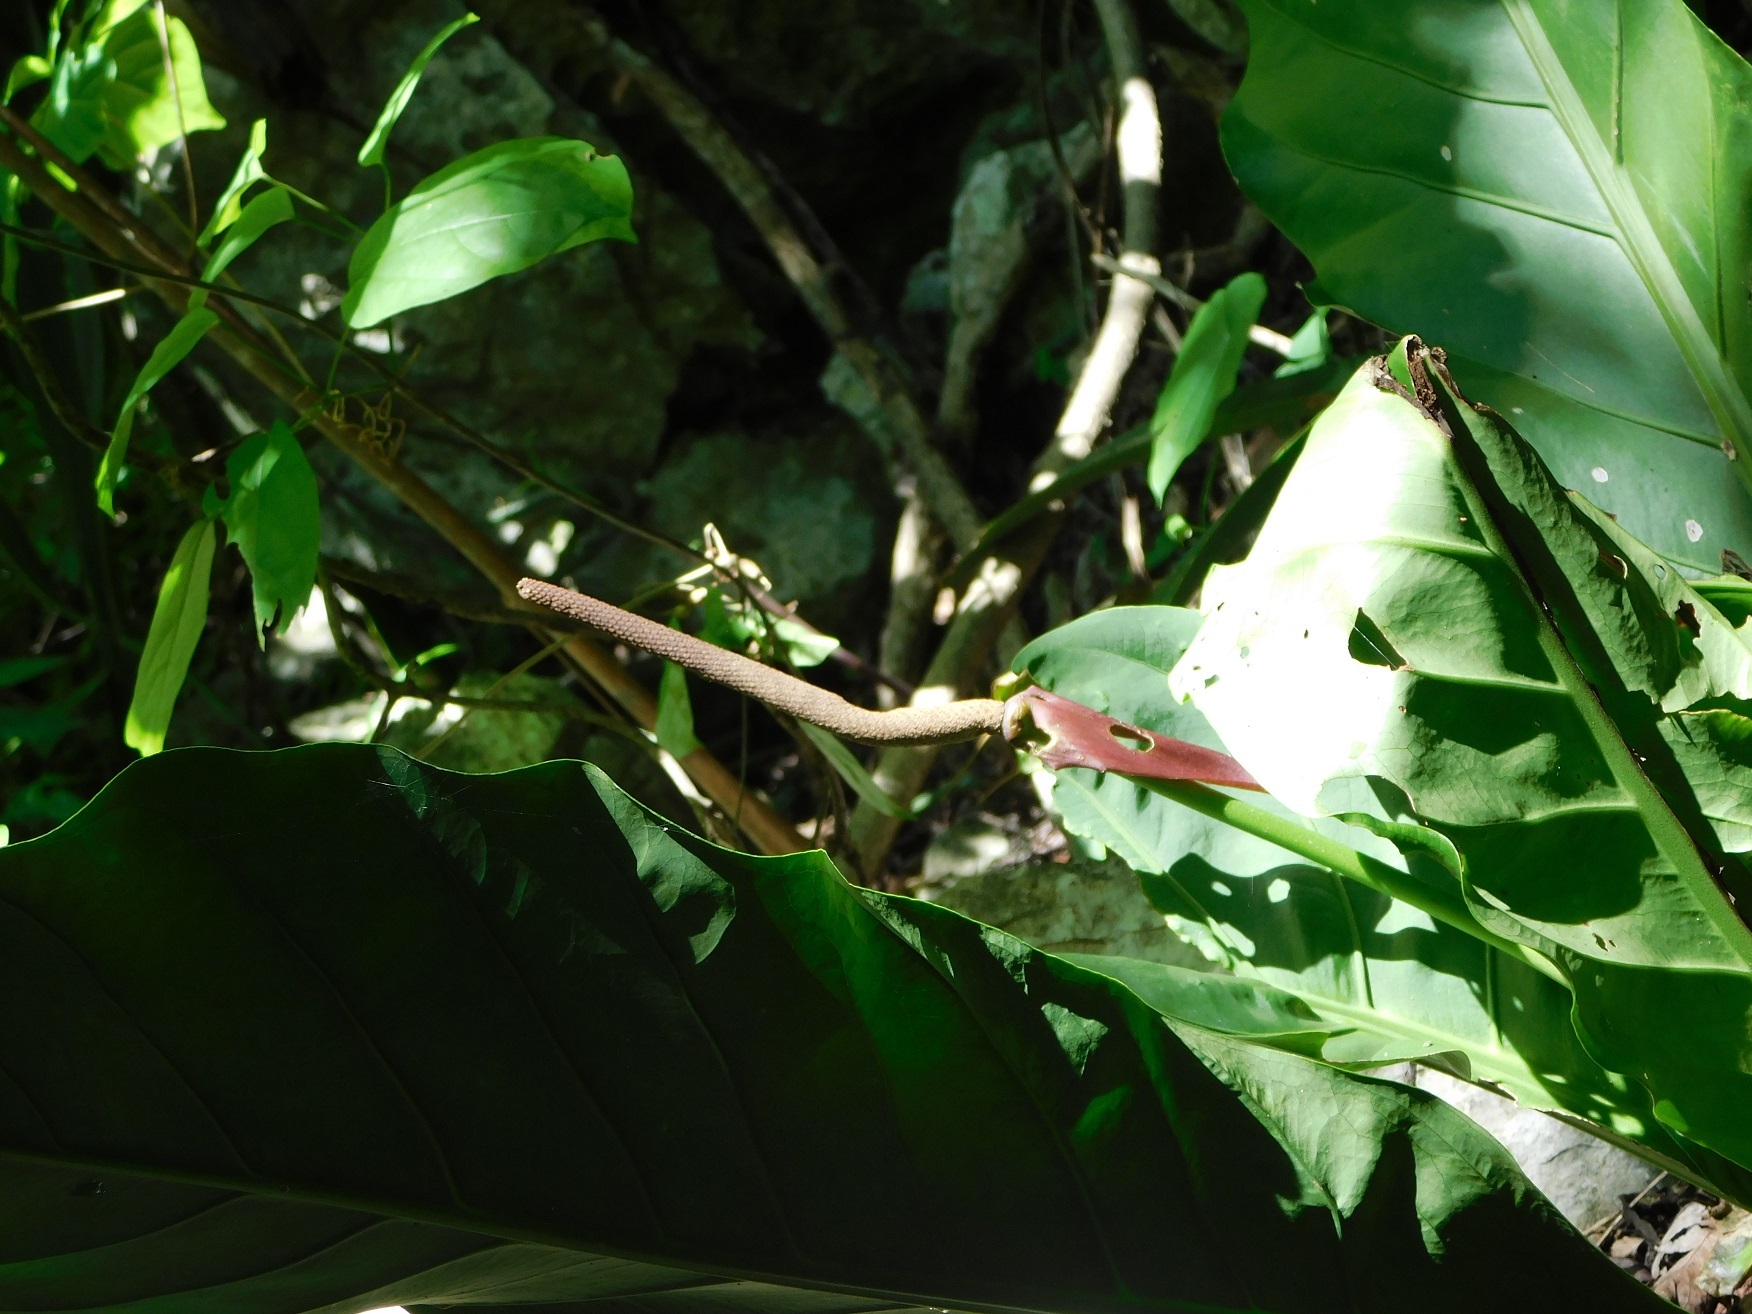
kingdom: Plantae
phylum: Tracheophyta
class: Liliopsida
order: Alismatales
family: Araceae
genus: Anthurium
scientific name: Anthurium schlechtendalii
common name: Laceleaf
